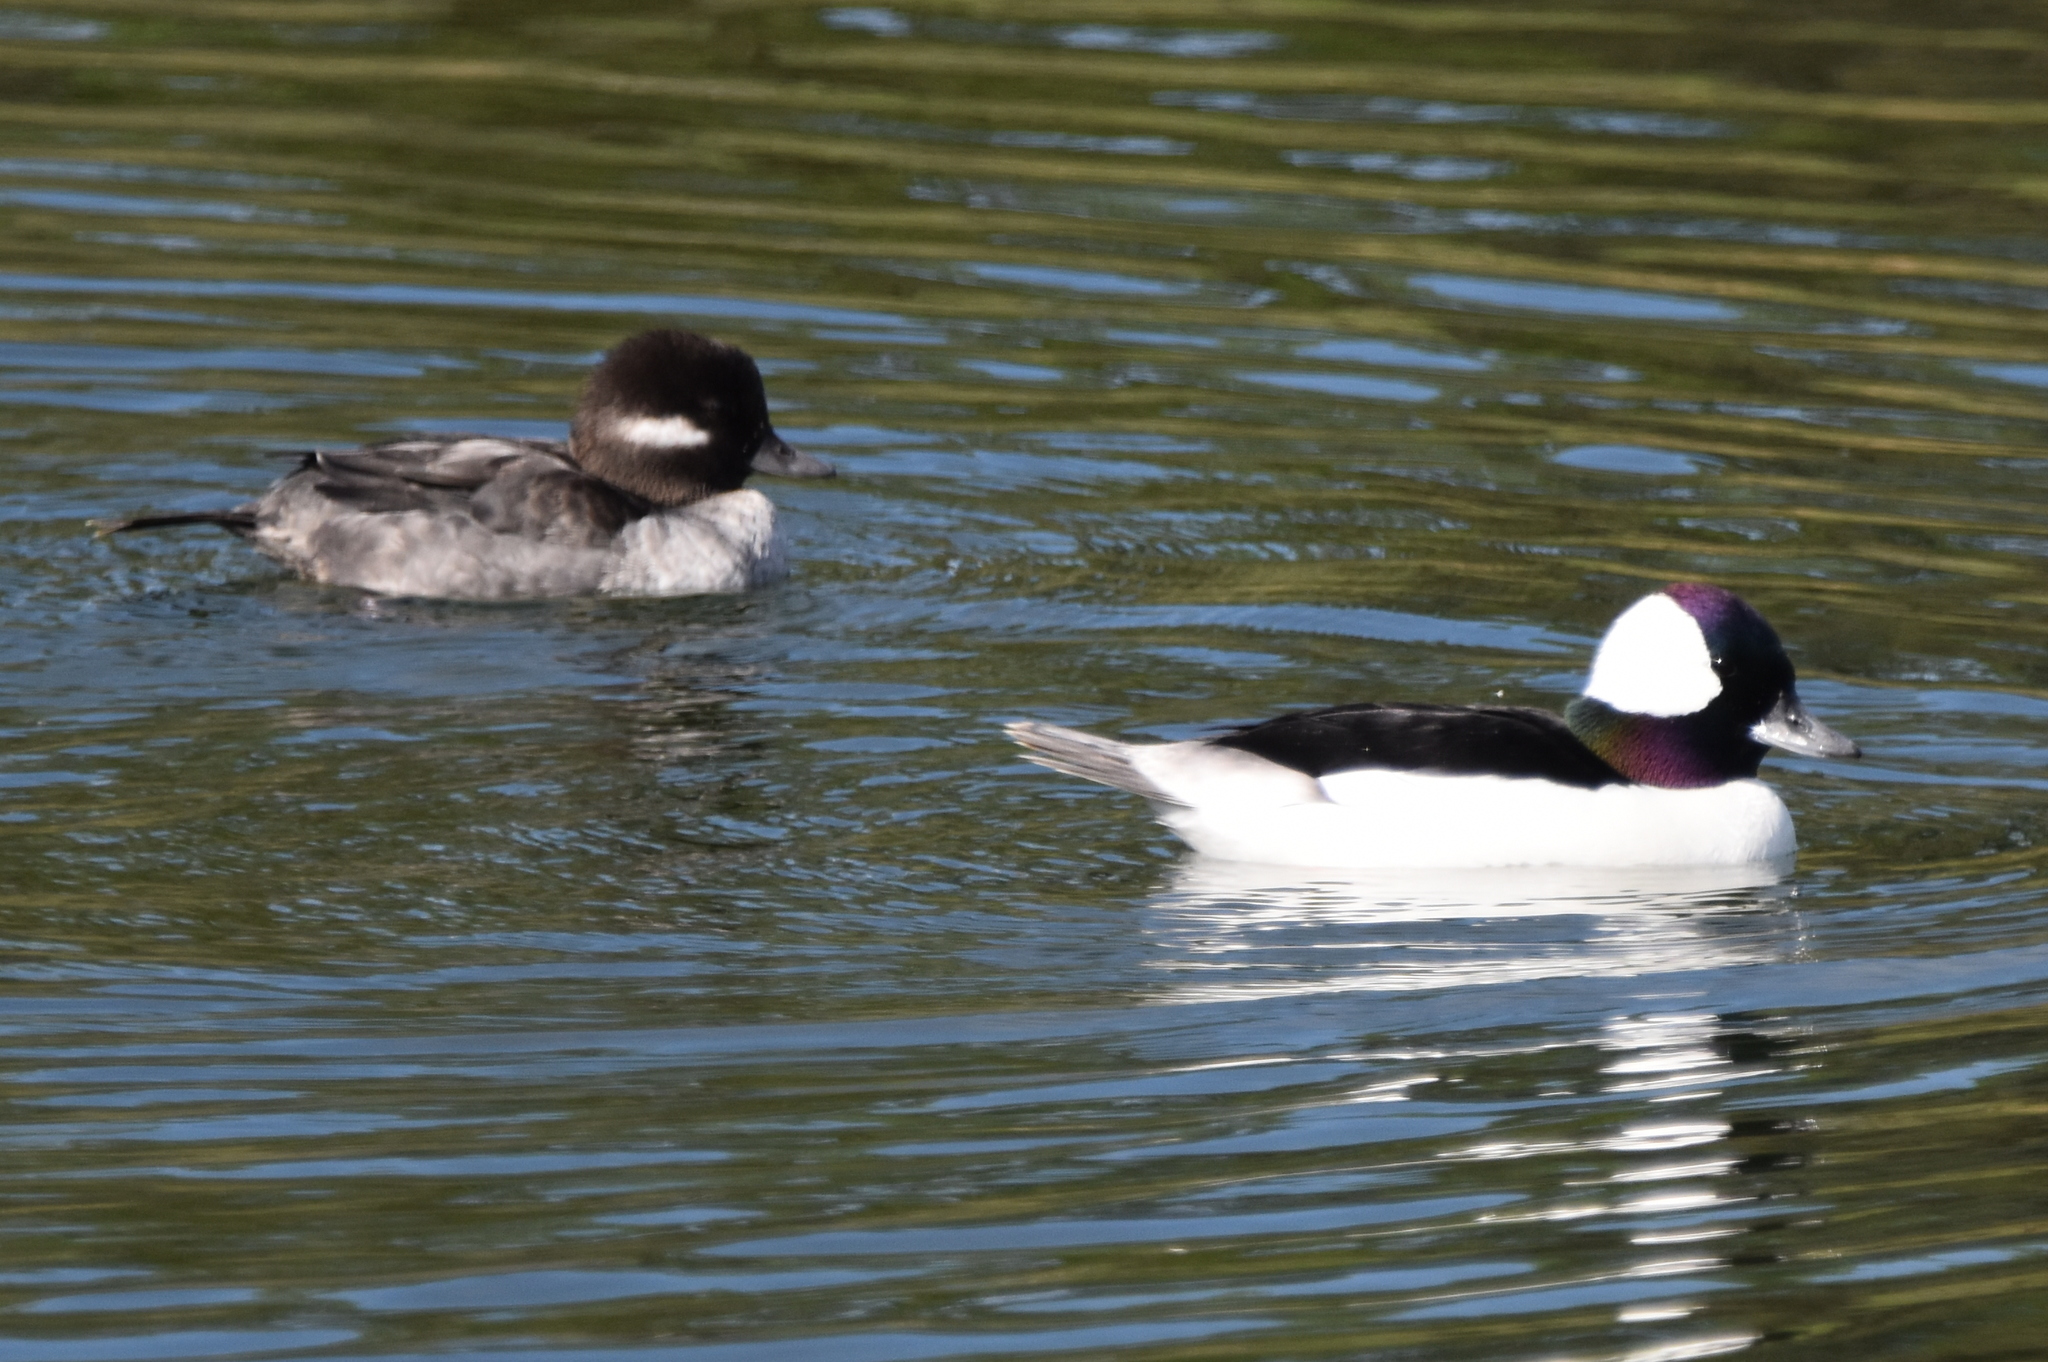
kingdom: Animalia
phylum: Chordata
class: Aves
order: Anseriformes
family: Anatidae
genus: Bucephala
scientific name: Bucephala albeola
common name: Bufflehead
